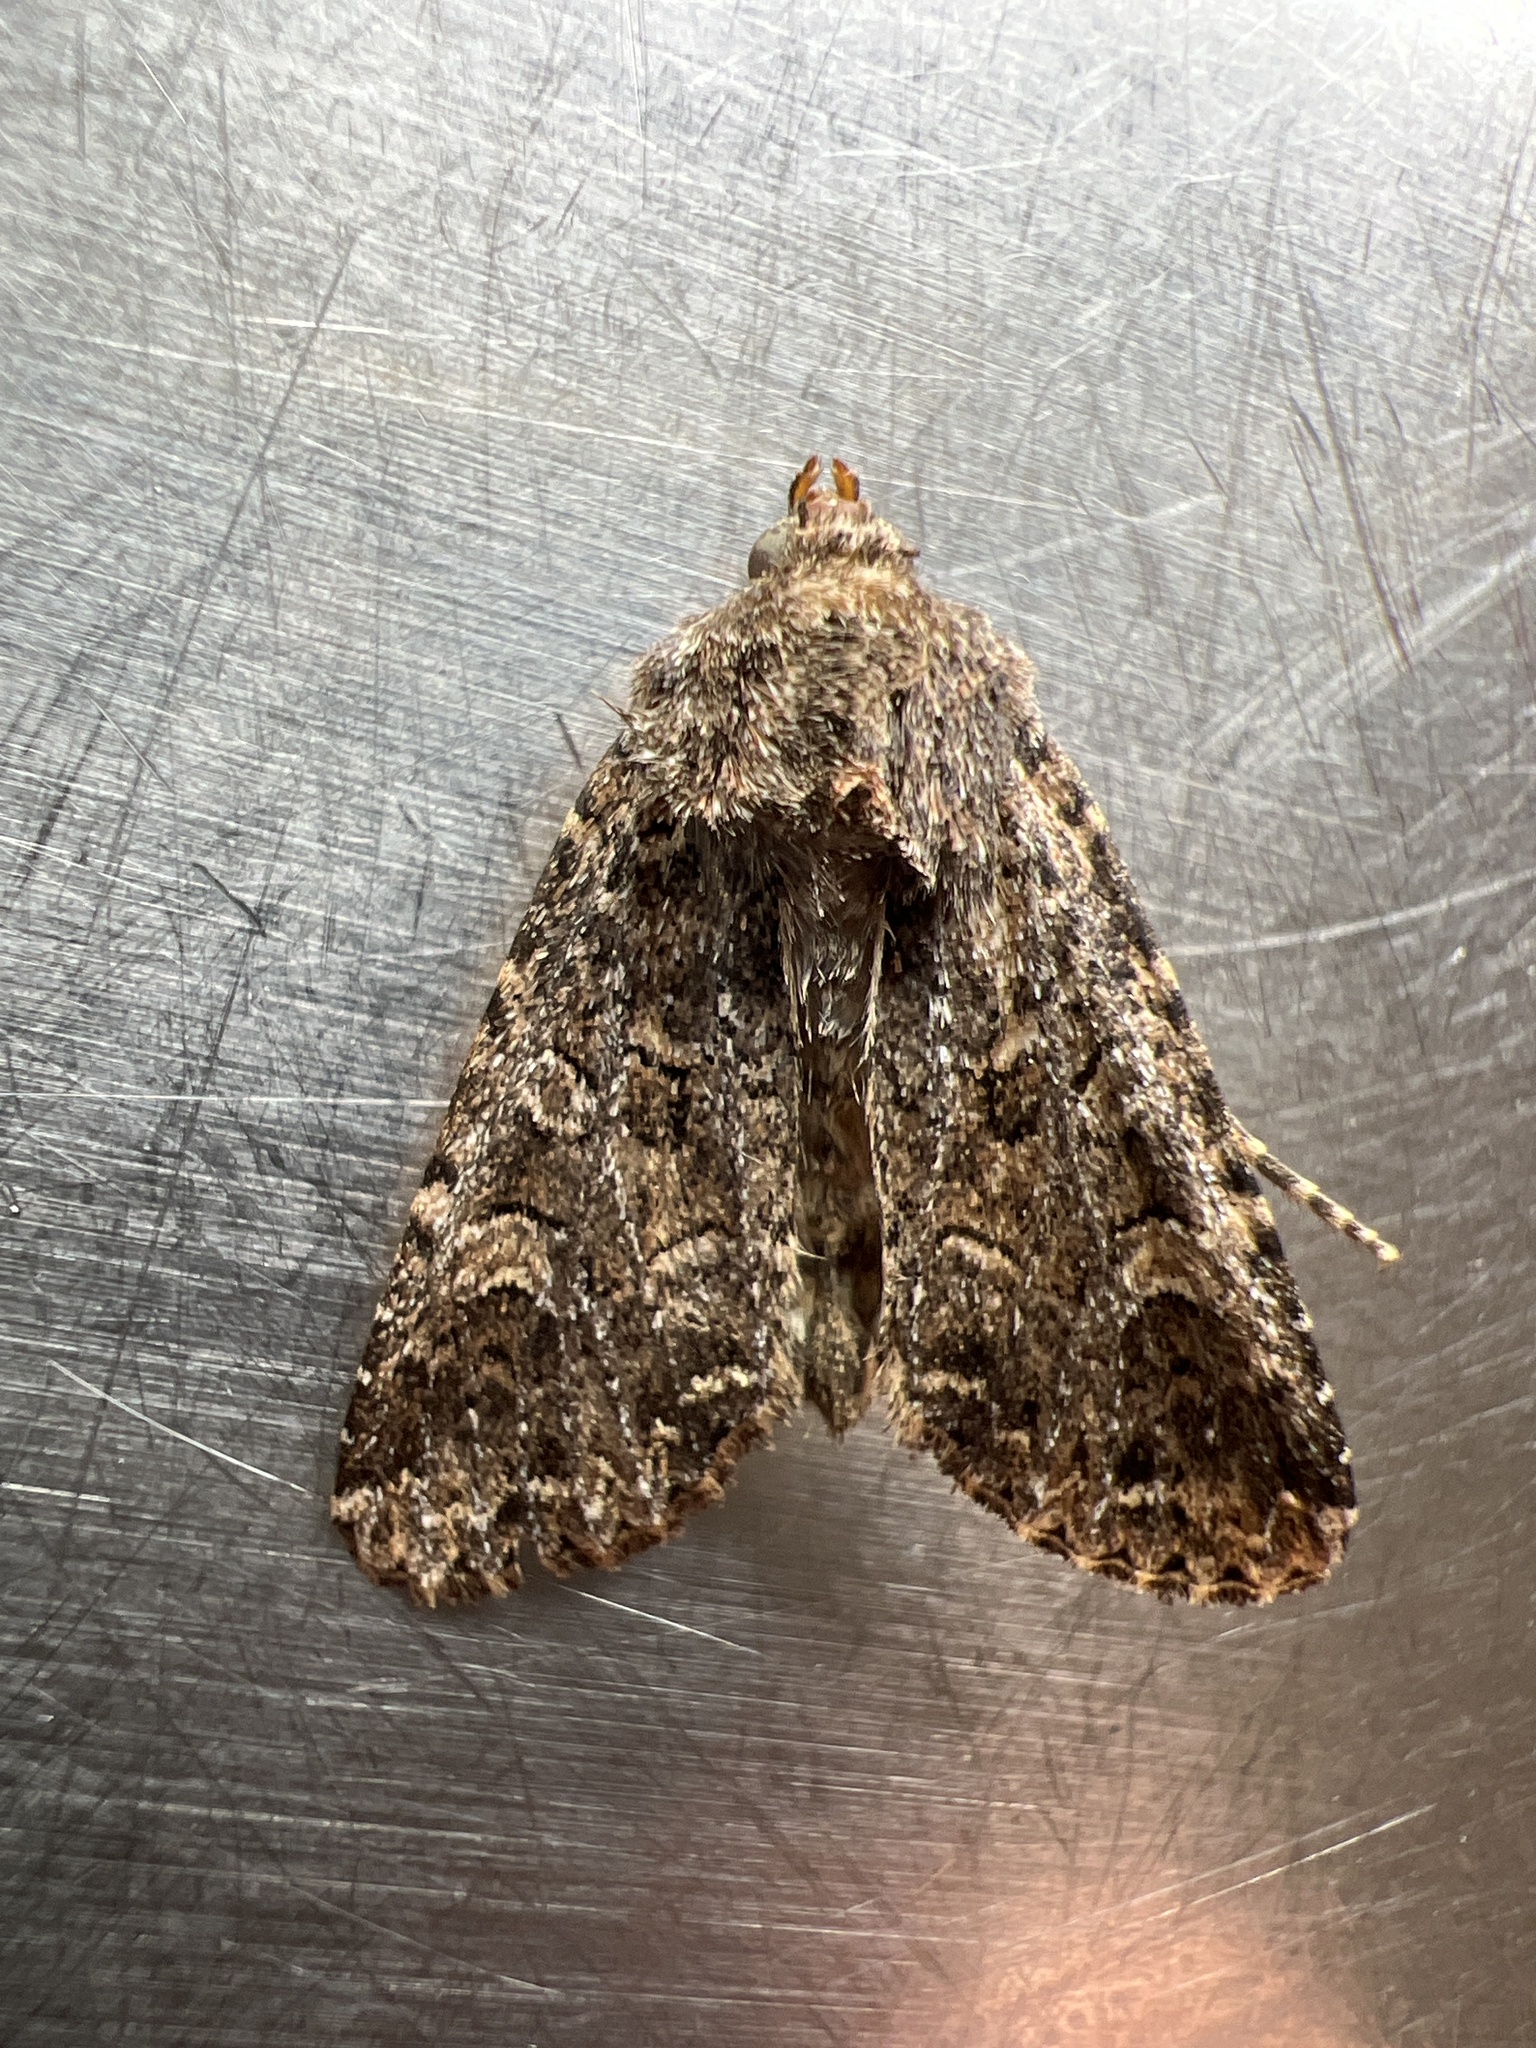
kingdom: Animalia
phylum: Arthropoda
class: Insecta
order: Lepidoptera
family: Noctuidae
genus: Apamea
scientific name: Apamea furva
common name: Confused
